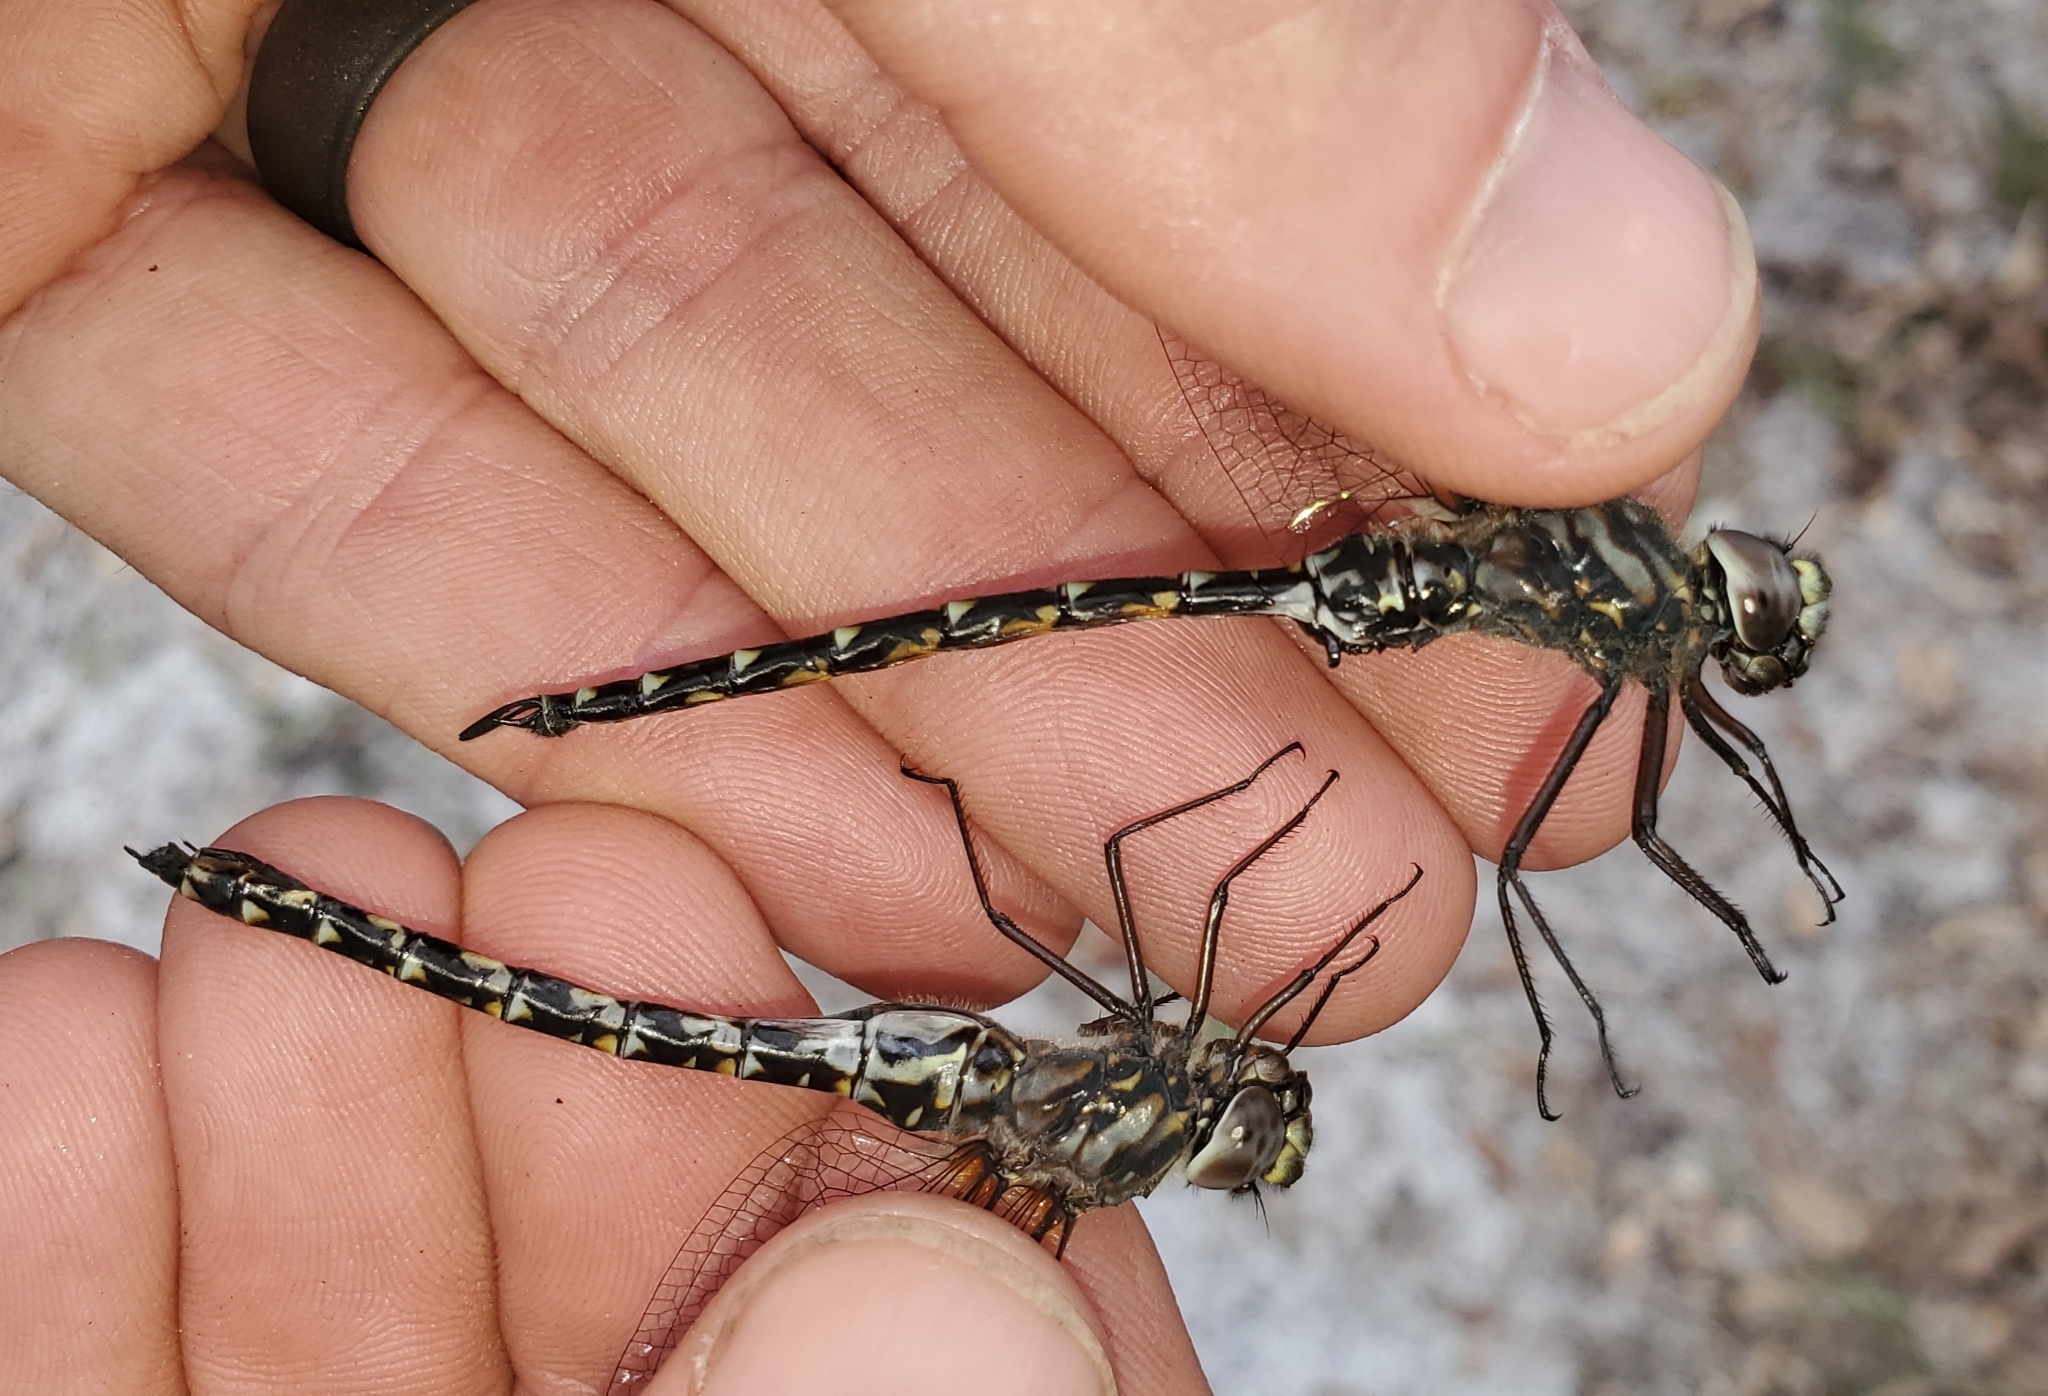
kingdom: Animalia
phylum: Arthropoda
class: Insecta
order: Odonata
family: Aeshnidae
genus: Gomphaeschna
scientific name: Gomphaeschna furcillata
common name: Harlequin darner
